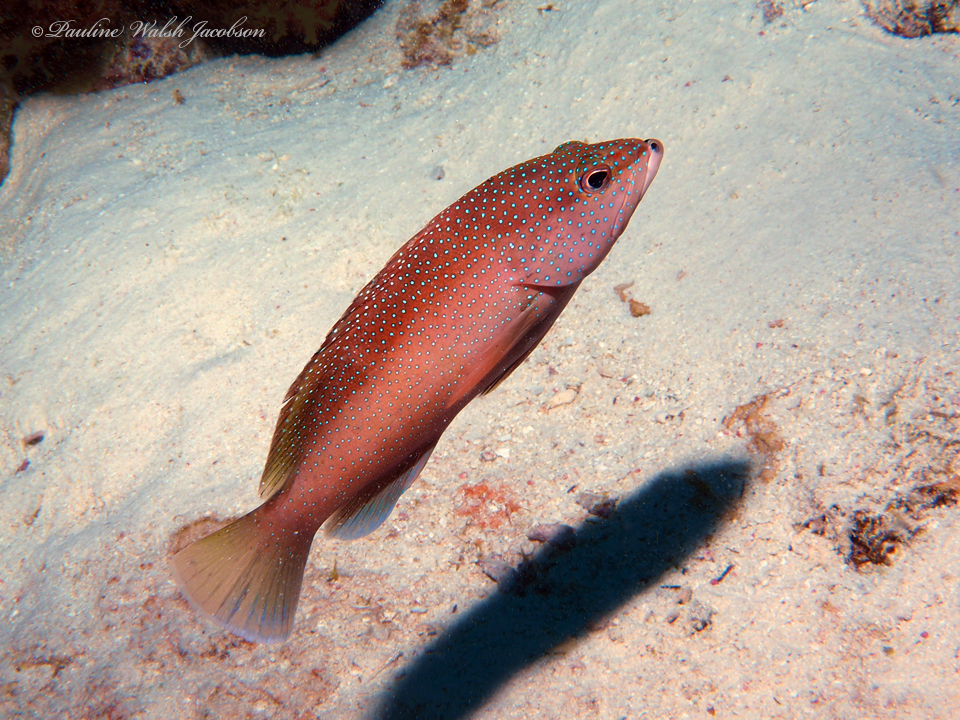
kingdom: Animalia
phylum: Chordata
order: Perciformes
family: Serranidae
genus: Cephalopholis
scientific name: Cephalopholis fulva
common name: Butterfish
